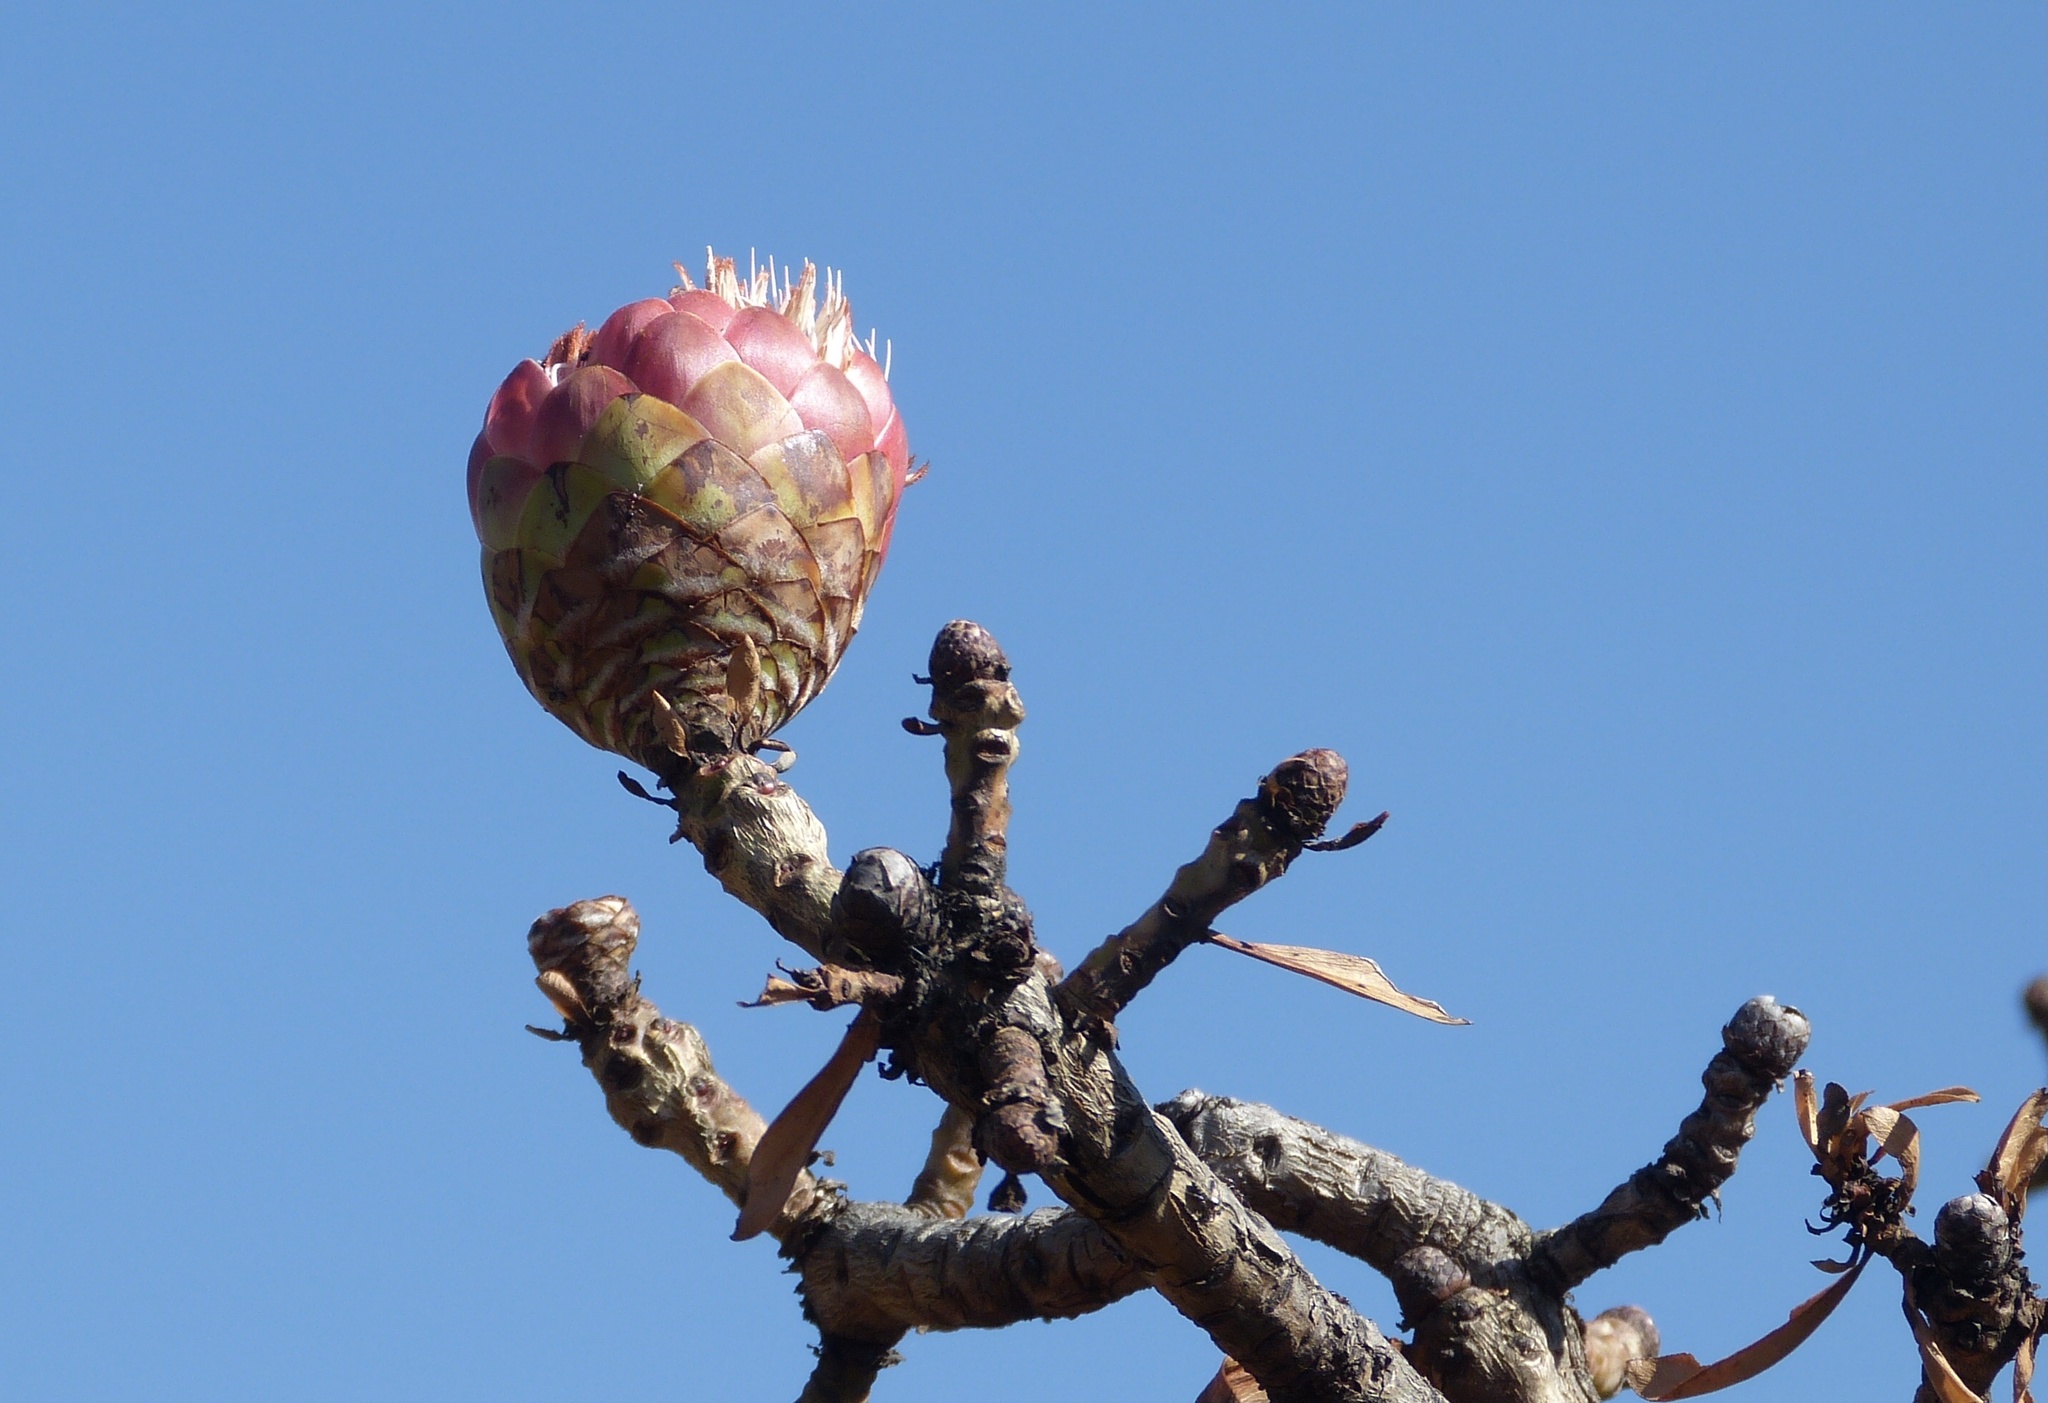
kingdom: Plantae
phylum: Tracheophyta
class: Magnoliopsida
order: Proteales
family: Proteaceae
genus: Protea
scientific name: Protea caffra
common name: Common sugarbush
